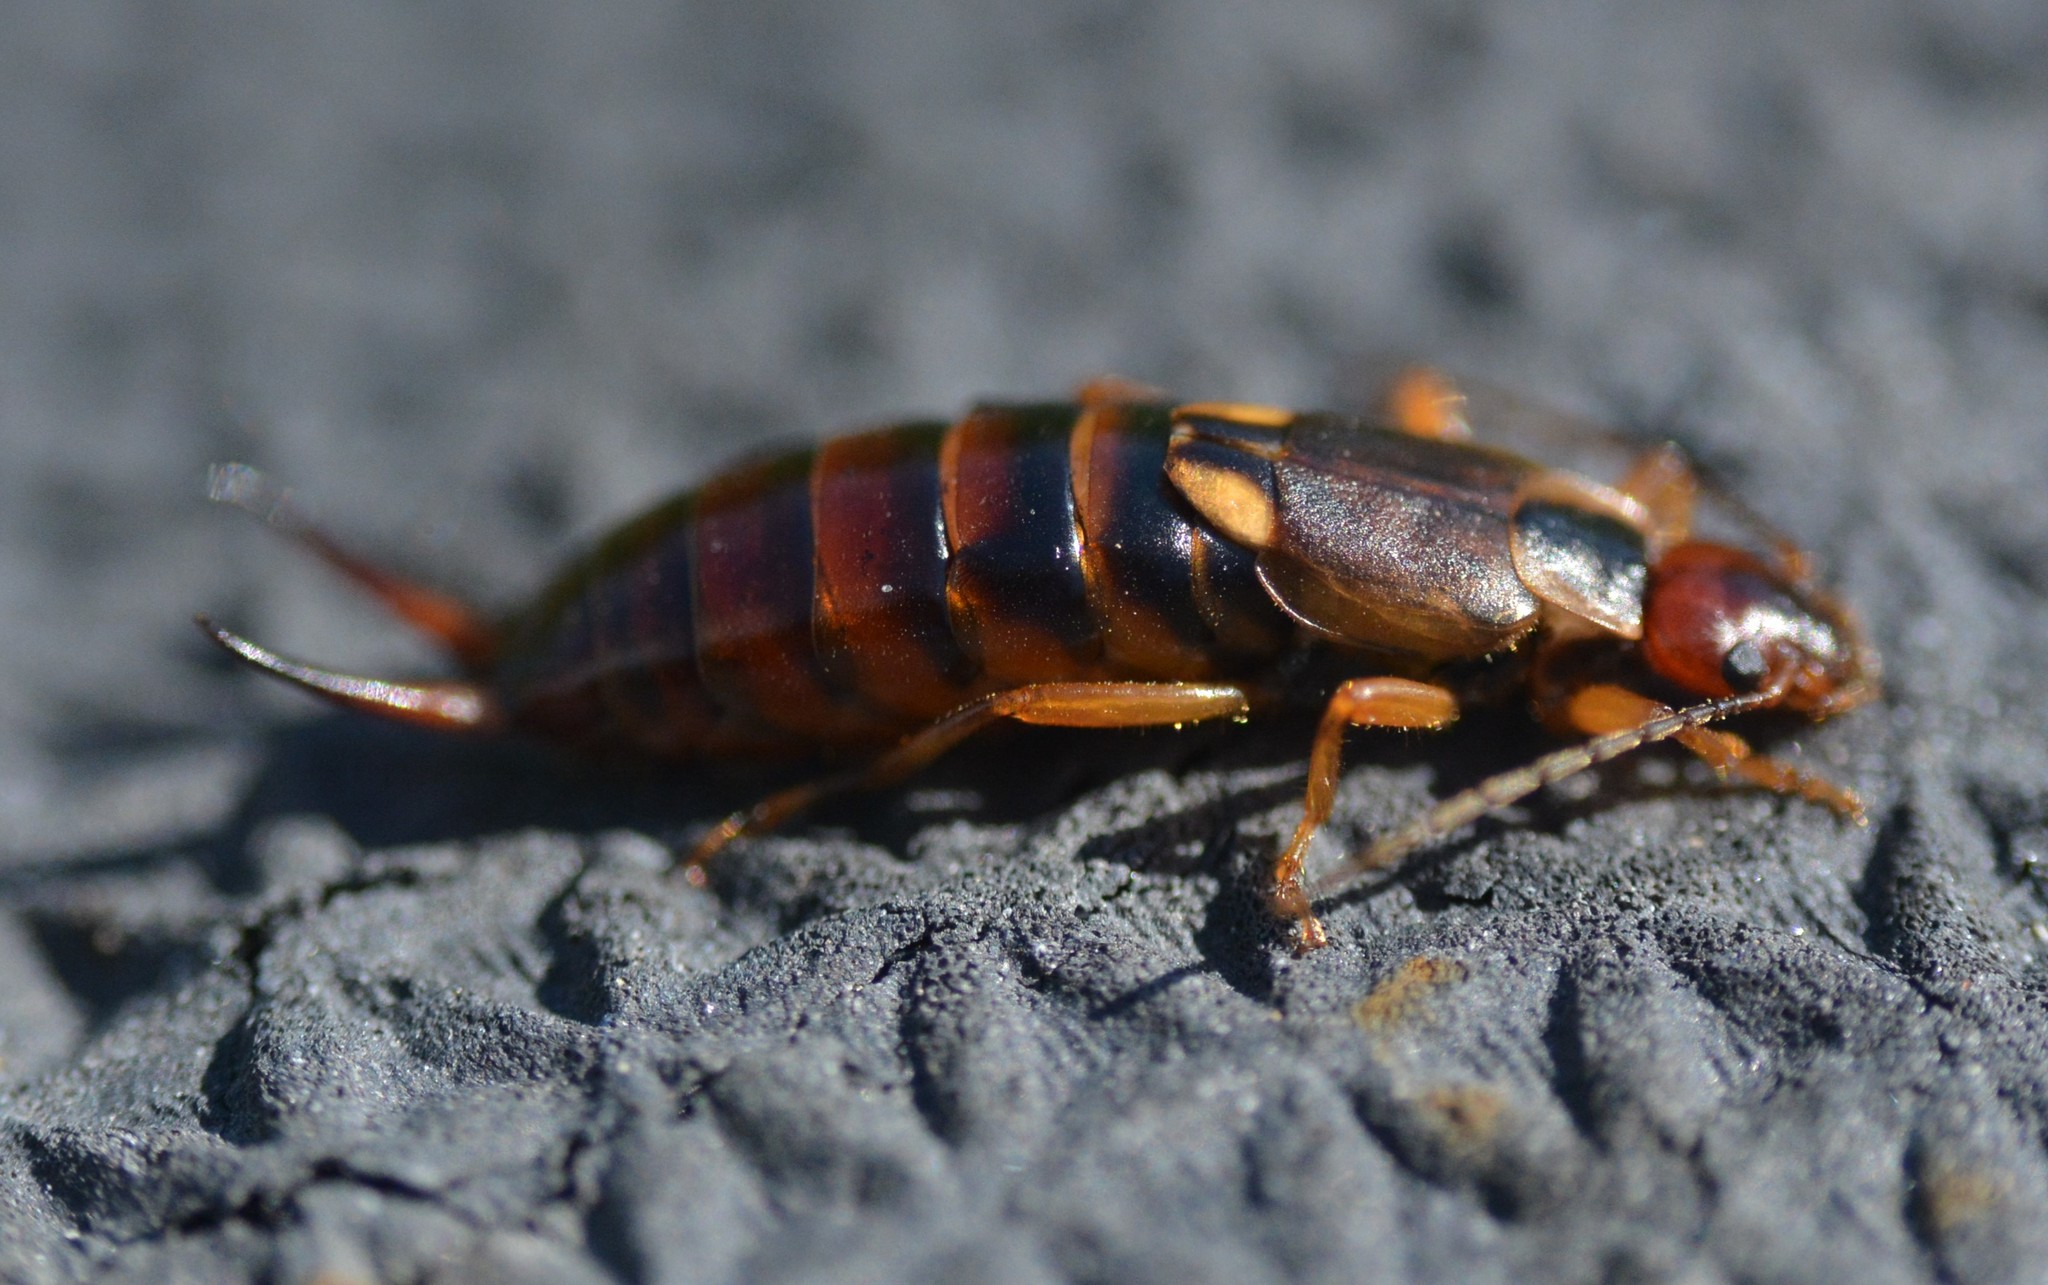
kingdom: Animalia
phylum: Arthropoda
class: Insecta
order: Dermaptera
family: Forficulidae
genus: Forficula
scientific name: Forficula
